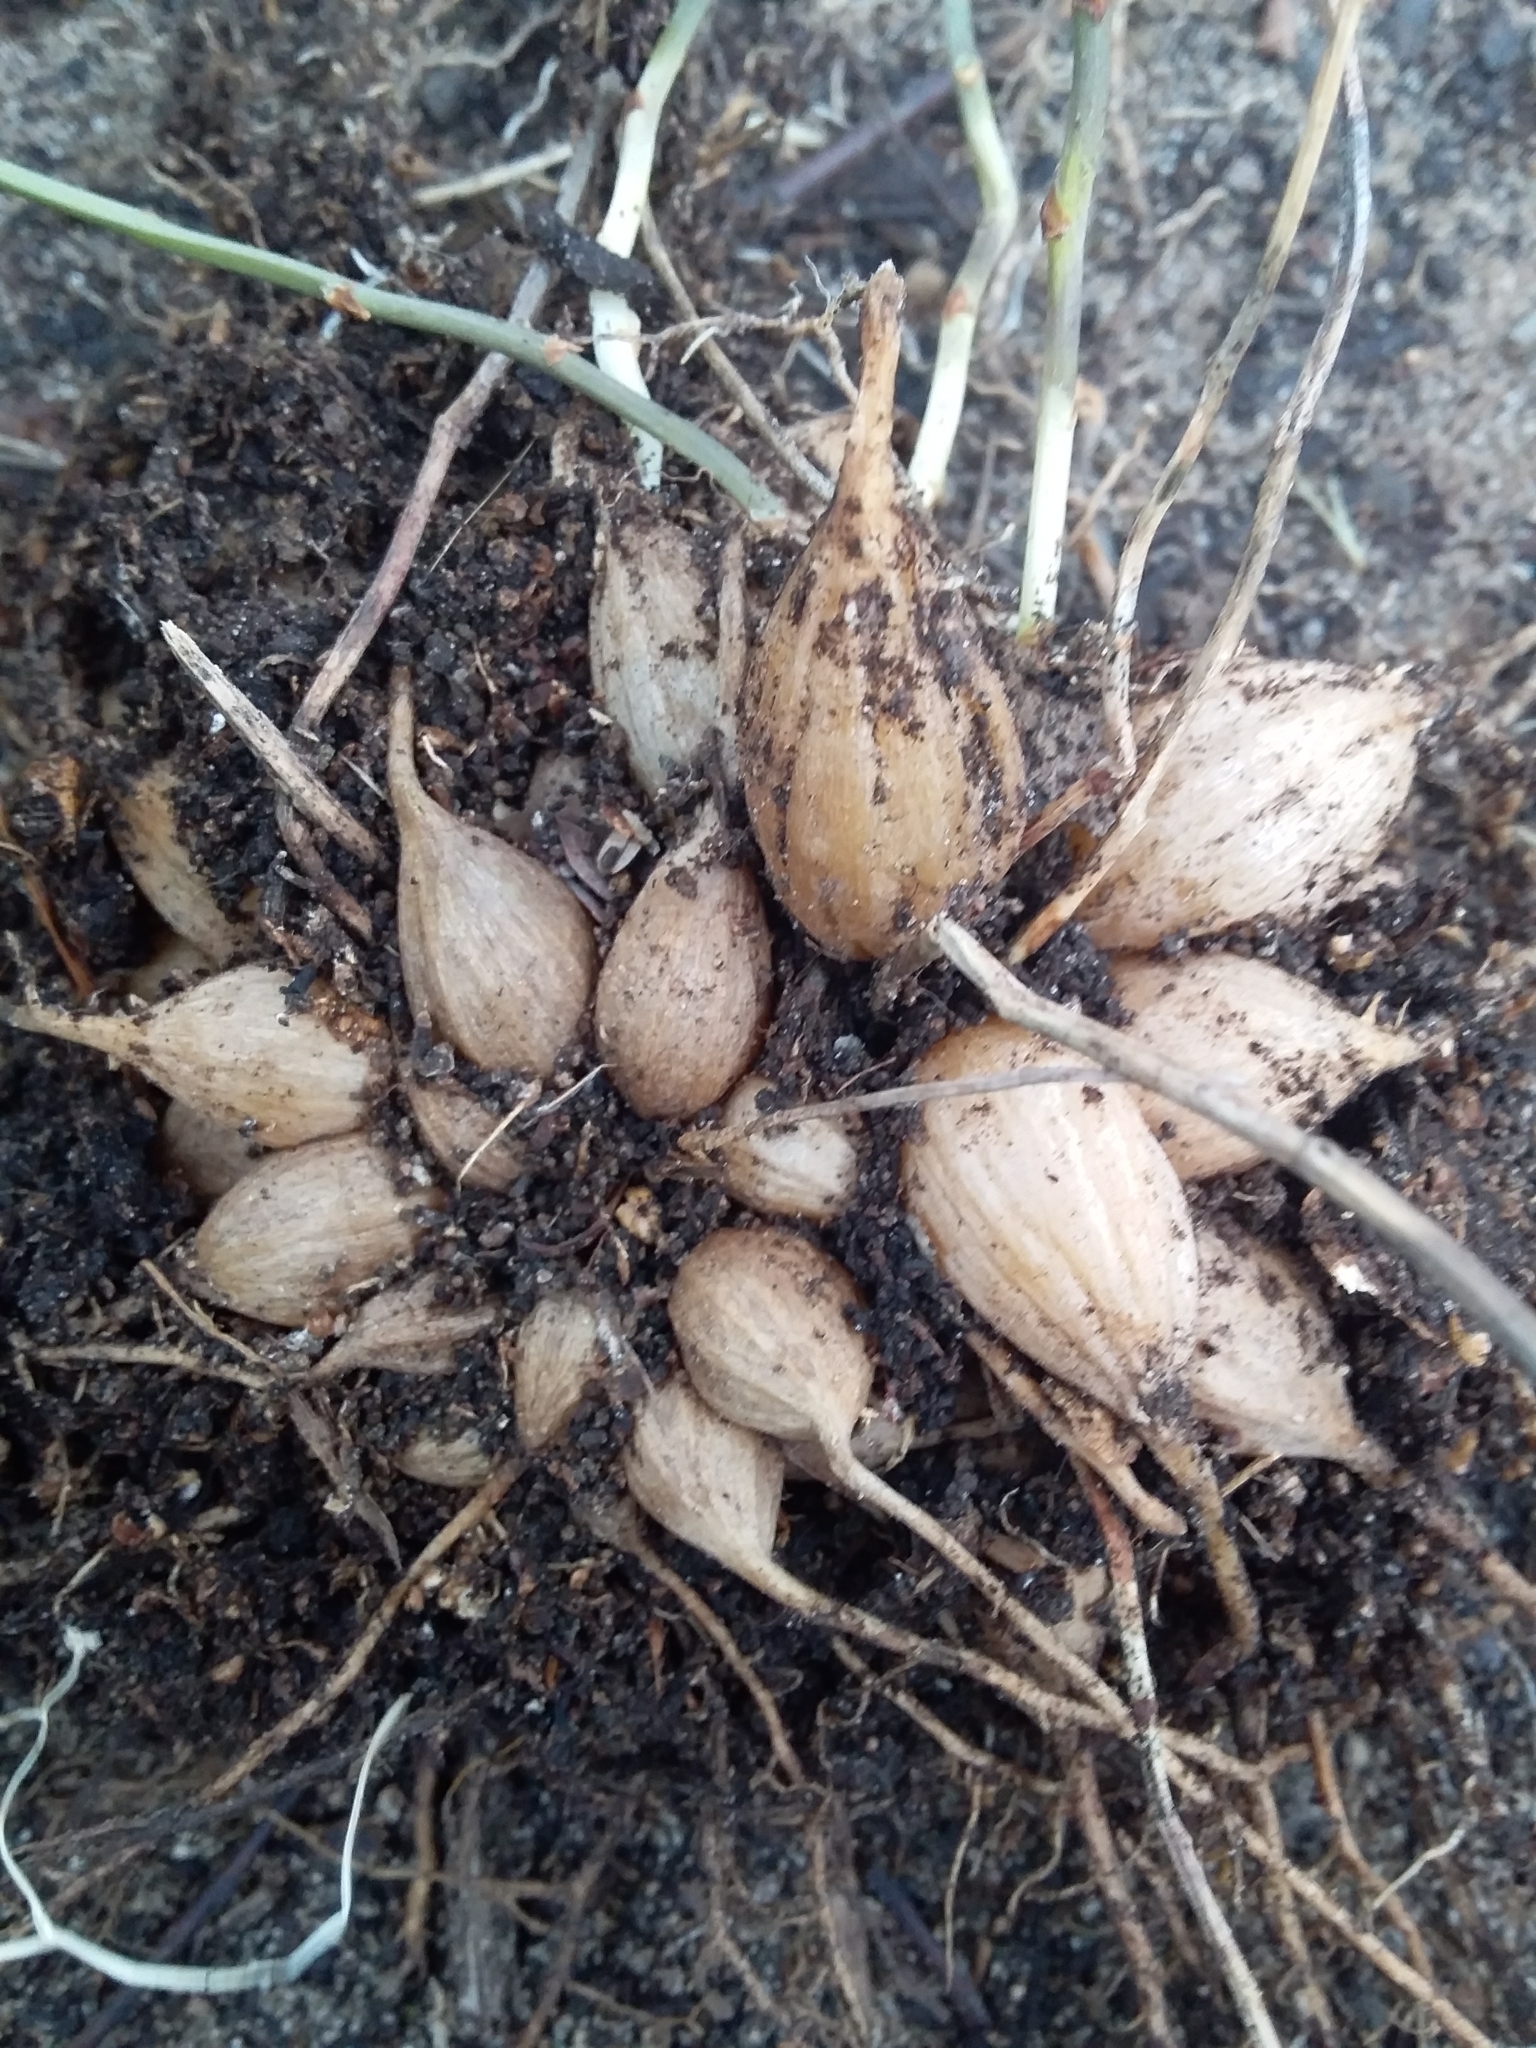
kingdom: Plantae
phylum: Tracheophyta
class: Liliopsida
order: Asparagales
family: Asparagaceae
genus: Asparagus
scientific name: Asparagus declinatus
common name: Bridal-creeper
